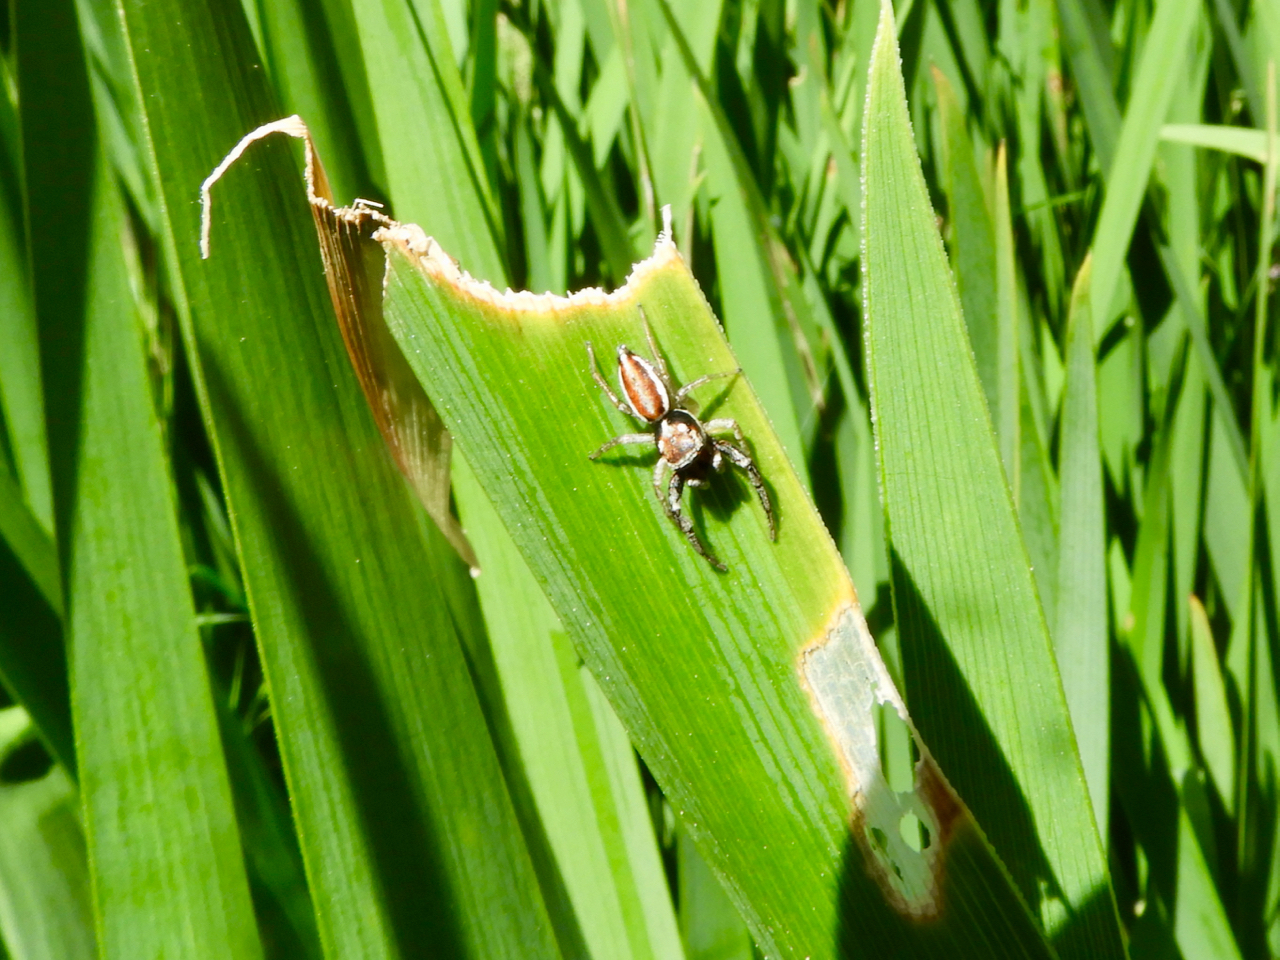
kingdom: Animalia
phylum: Arthropoda
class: Arachnida
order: Araneae
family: Salticidae
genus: Icius
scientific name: Icius hamatus
